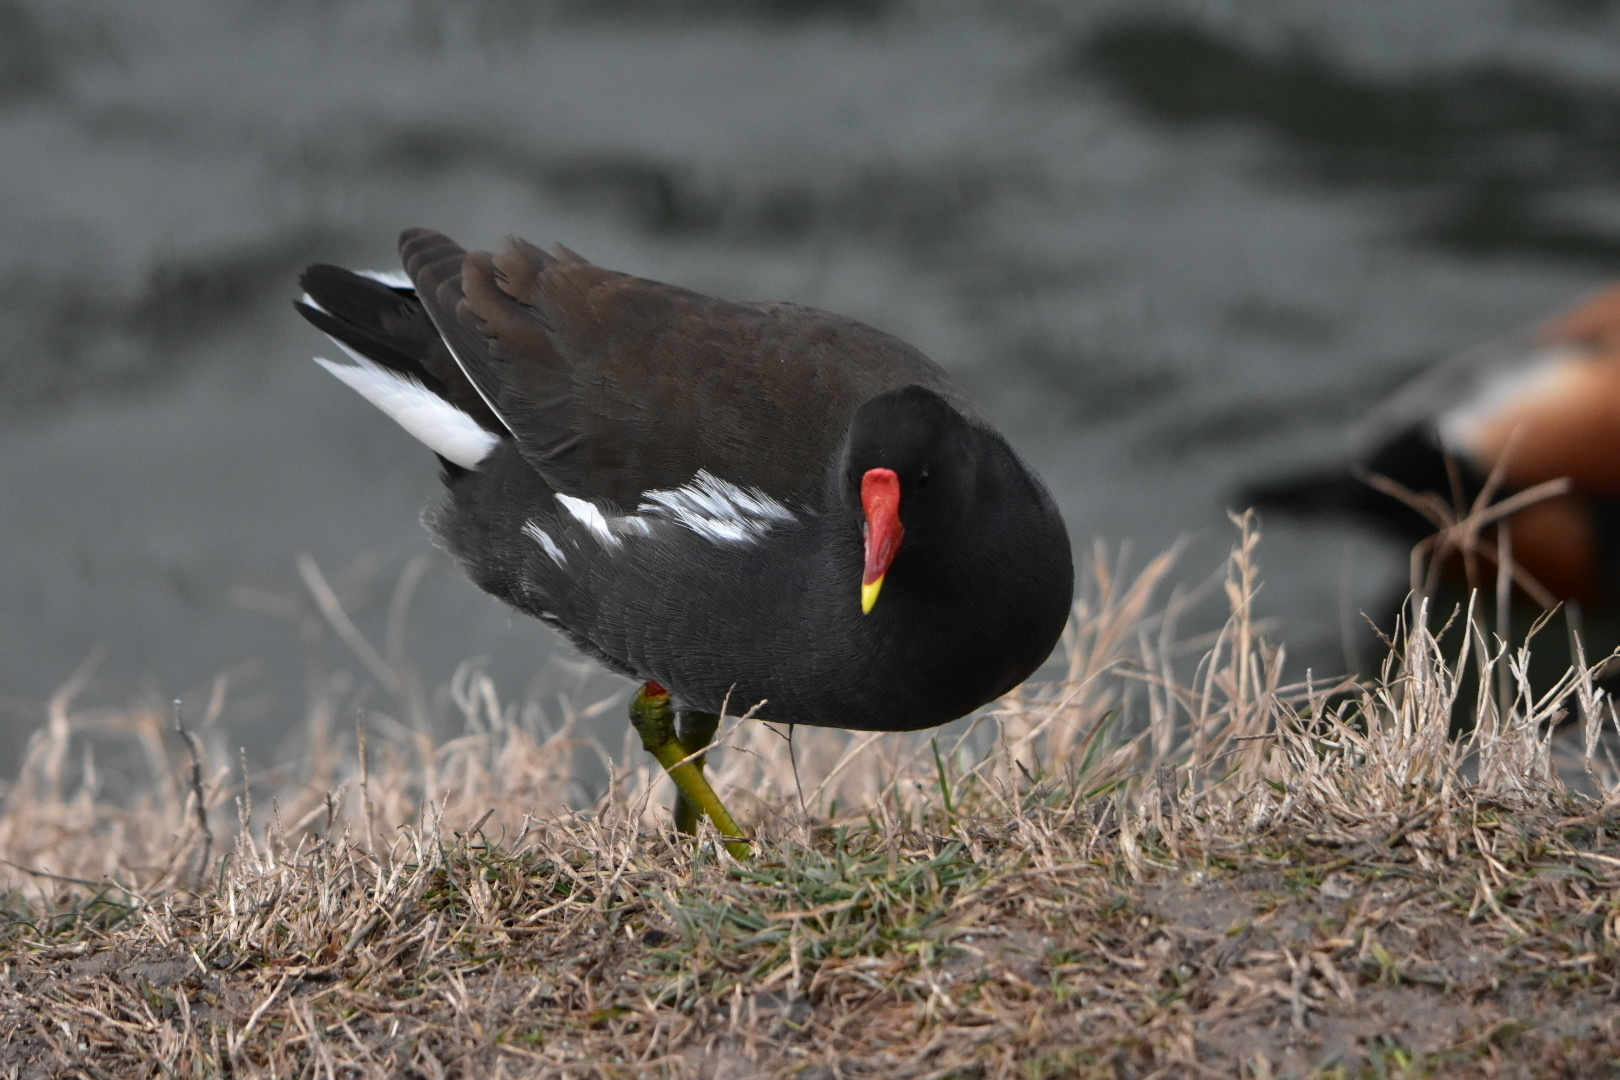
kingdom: Animalia
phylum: Chordata
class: Aves
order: Gruiformes
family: Rallidae
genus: Gallinula
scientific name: Gallinula chloropus
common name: Common moorhen
